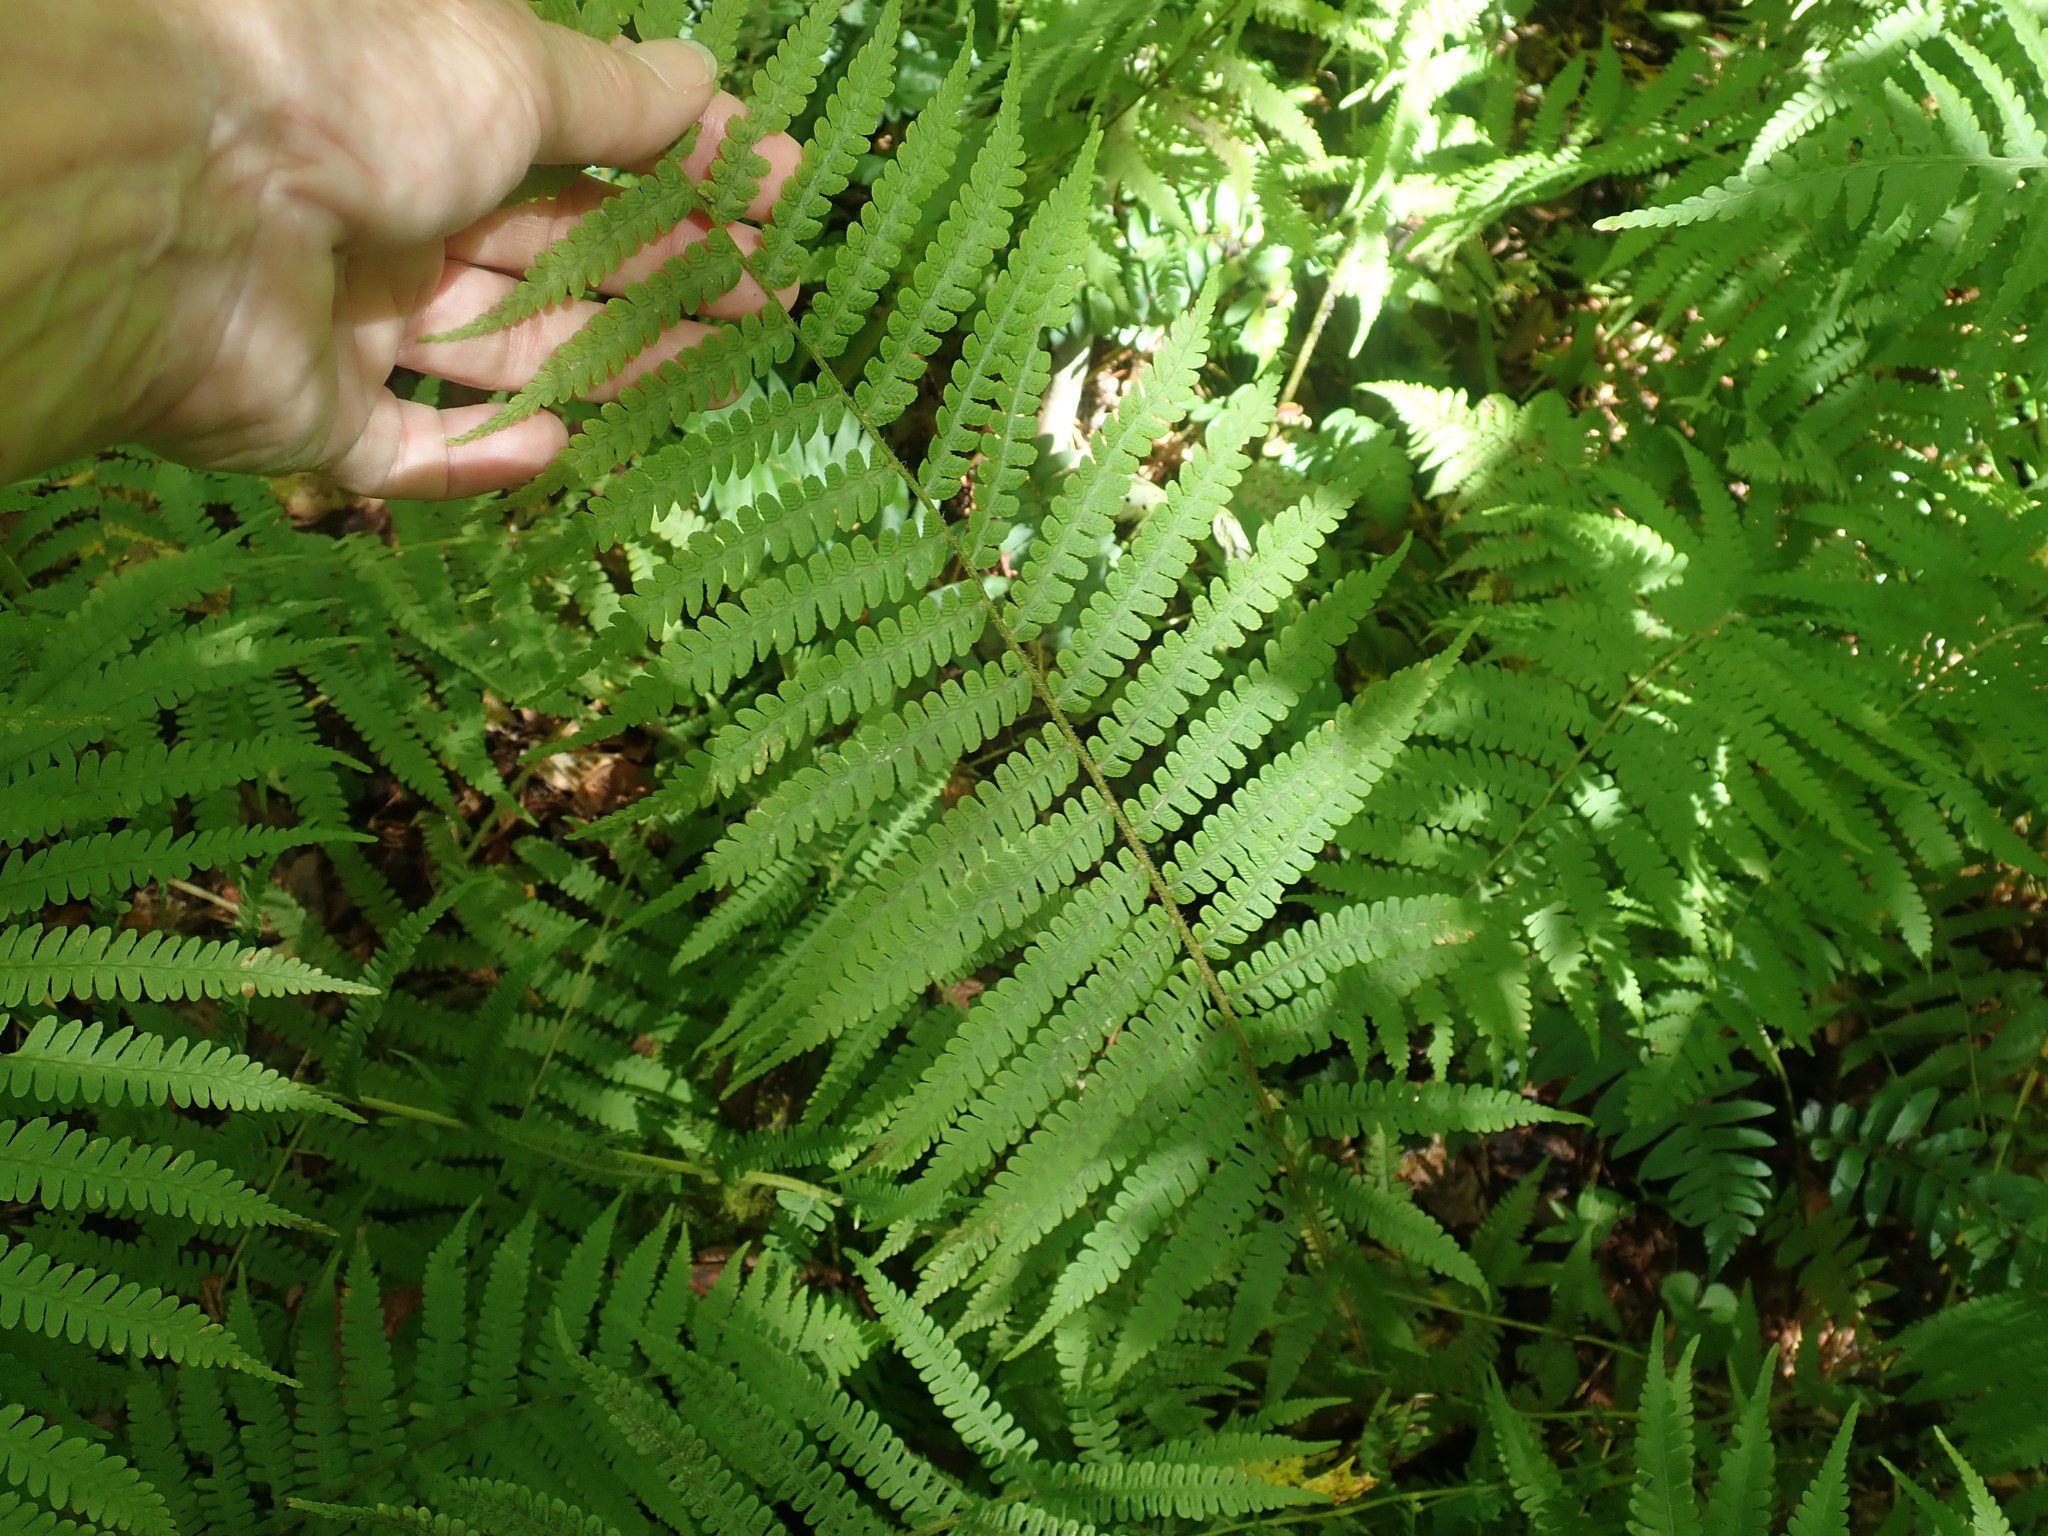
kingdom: Plantae
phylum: Tracheophyta
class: Polypodiopsida
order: Polypodiales
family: Athyriaceae
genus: Deparia
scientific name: Deparia acrostichoides
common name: Silver false spleenwort
